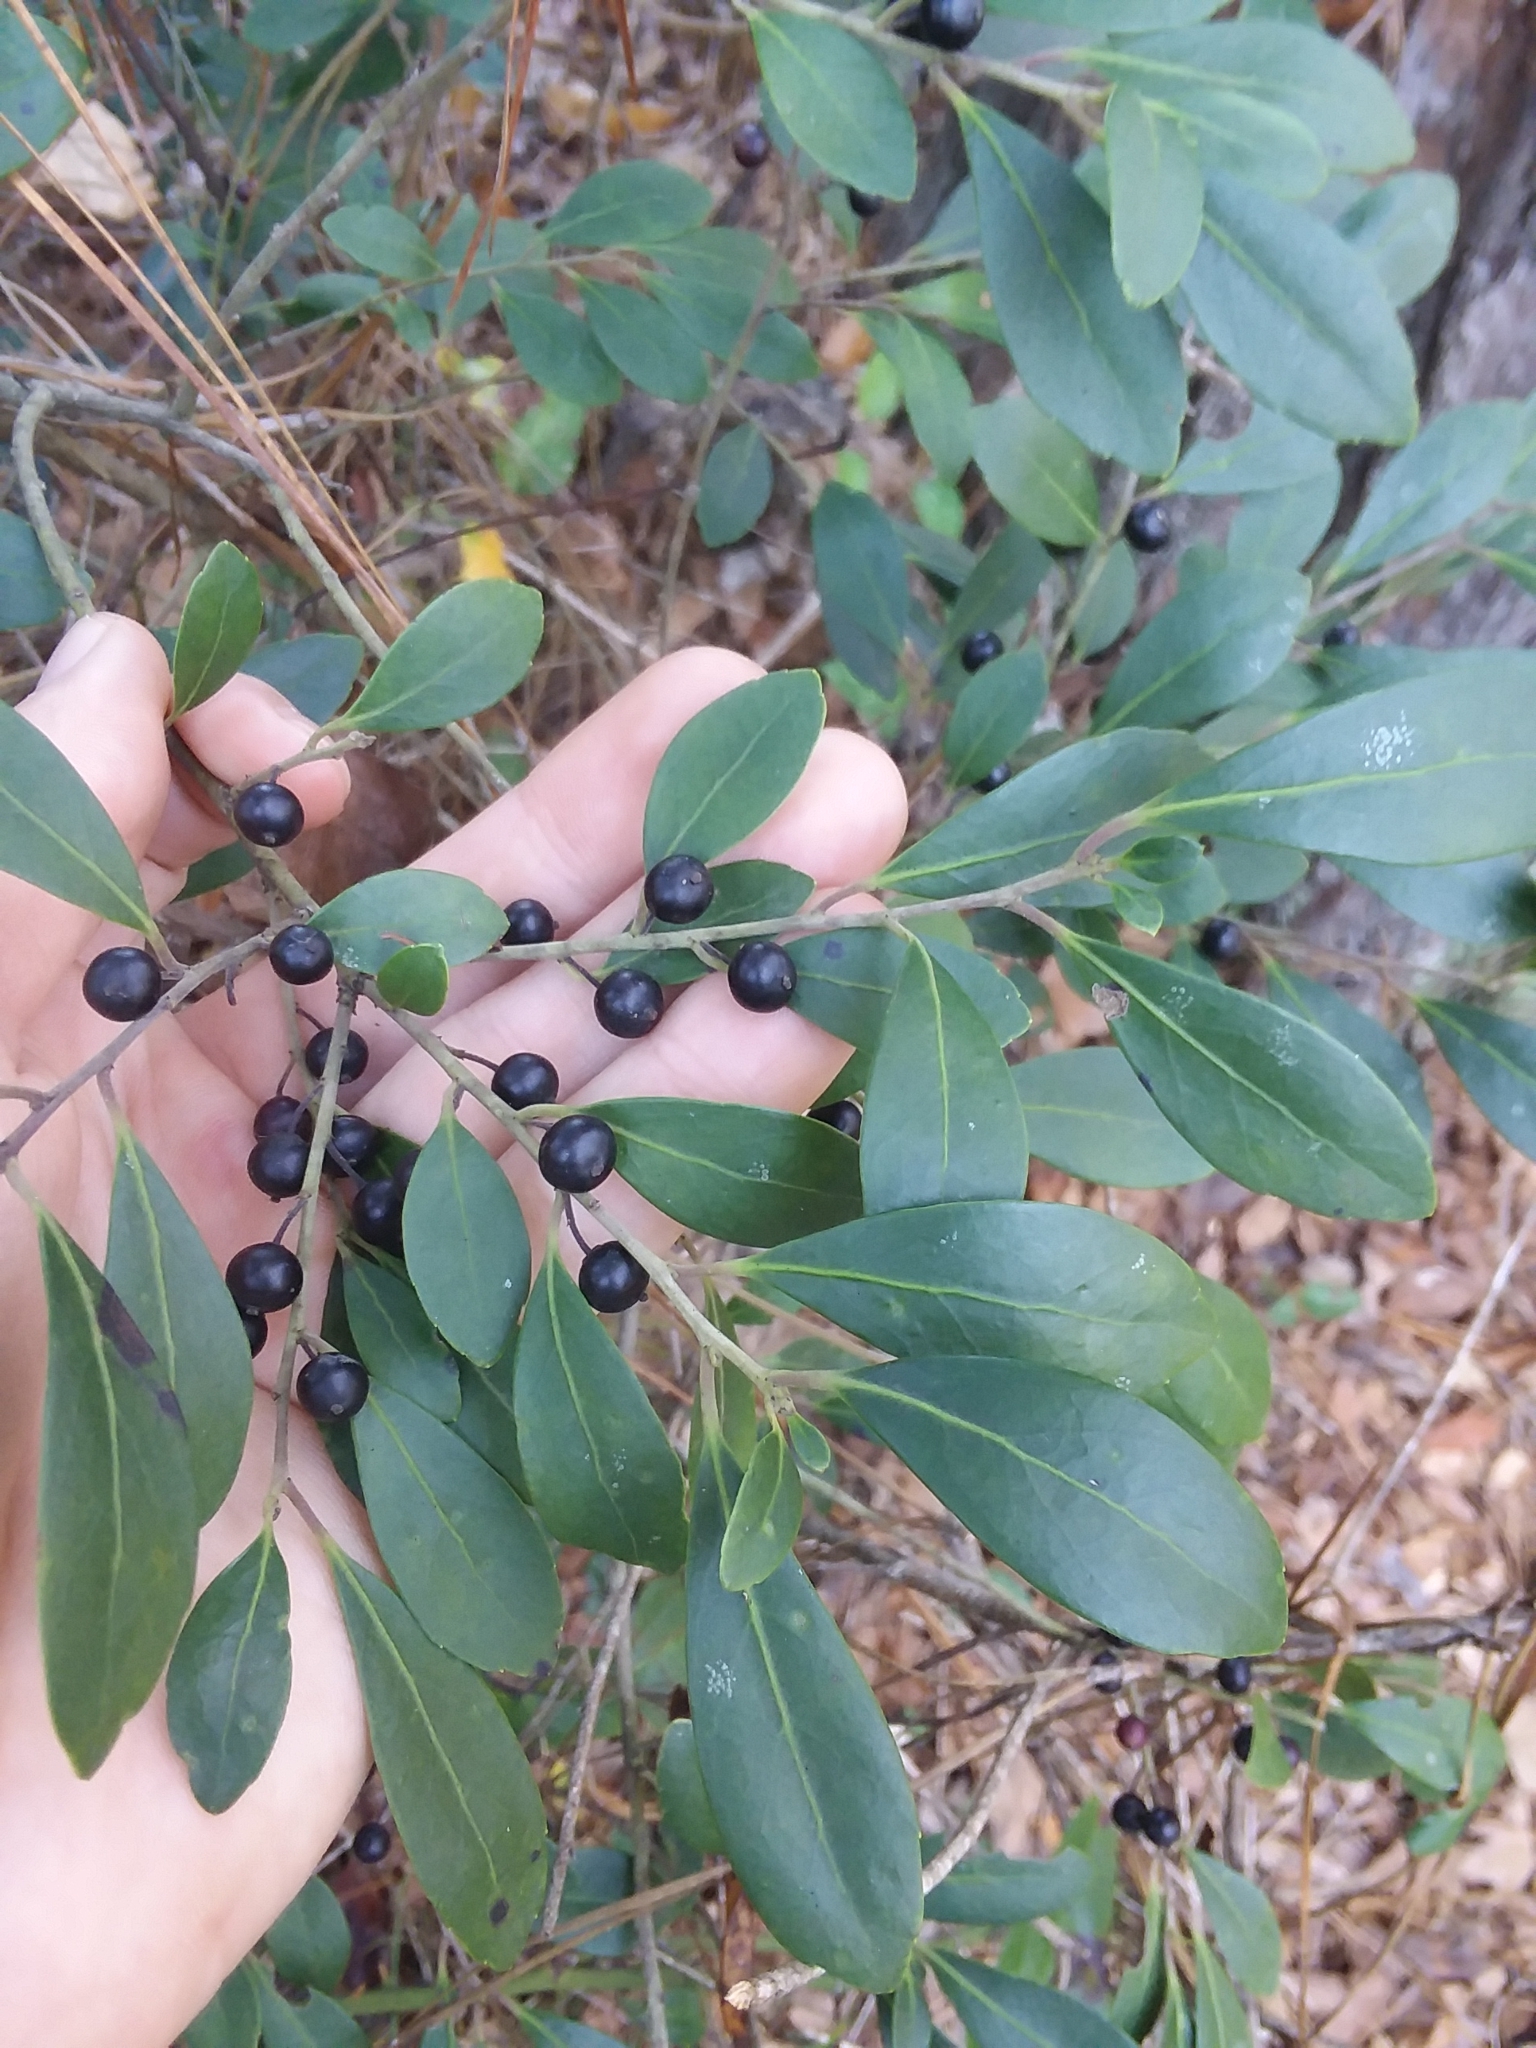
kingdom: Plantae
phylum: Tracheophyta
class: Magnoliopsida
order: Aquifoliales
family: Aquifoliaceae
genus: Ilex
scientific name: Ilex glabra
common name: Bitter gallberry
